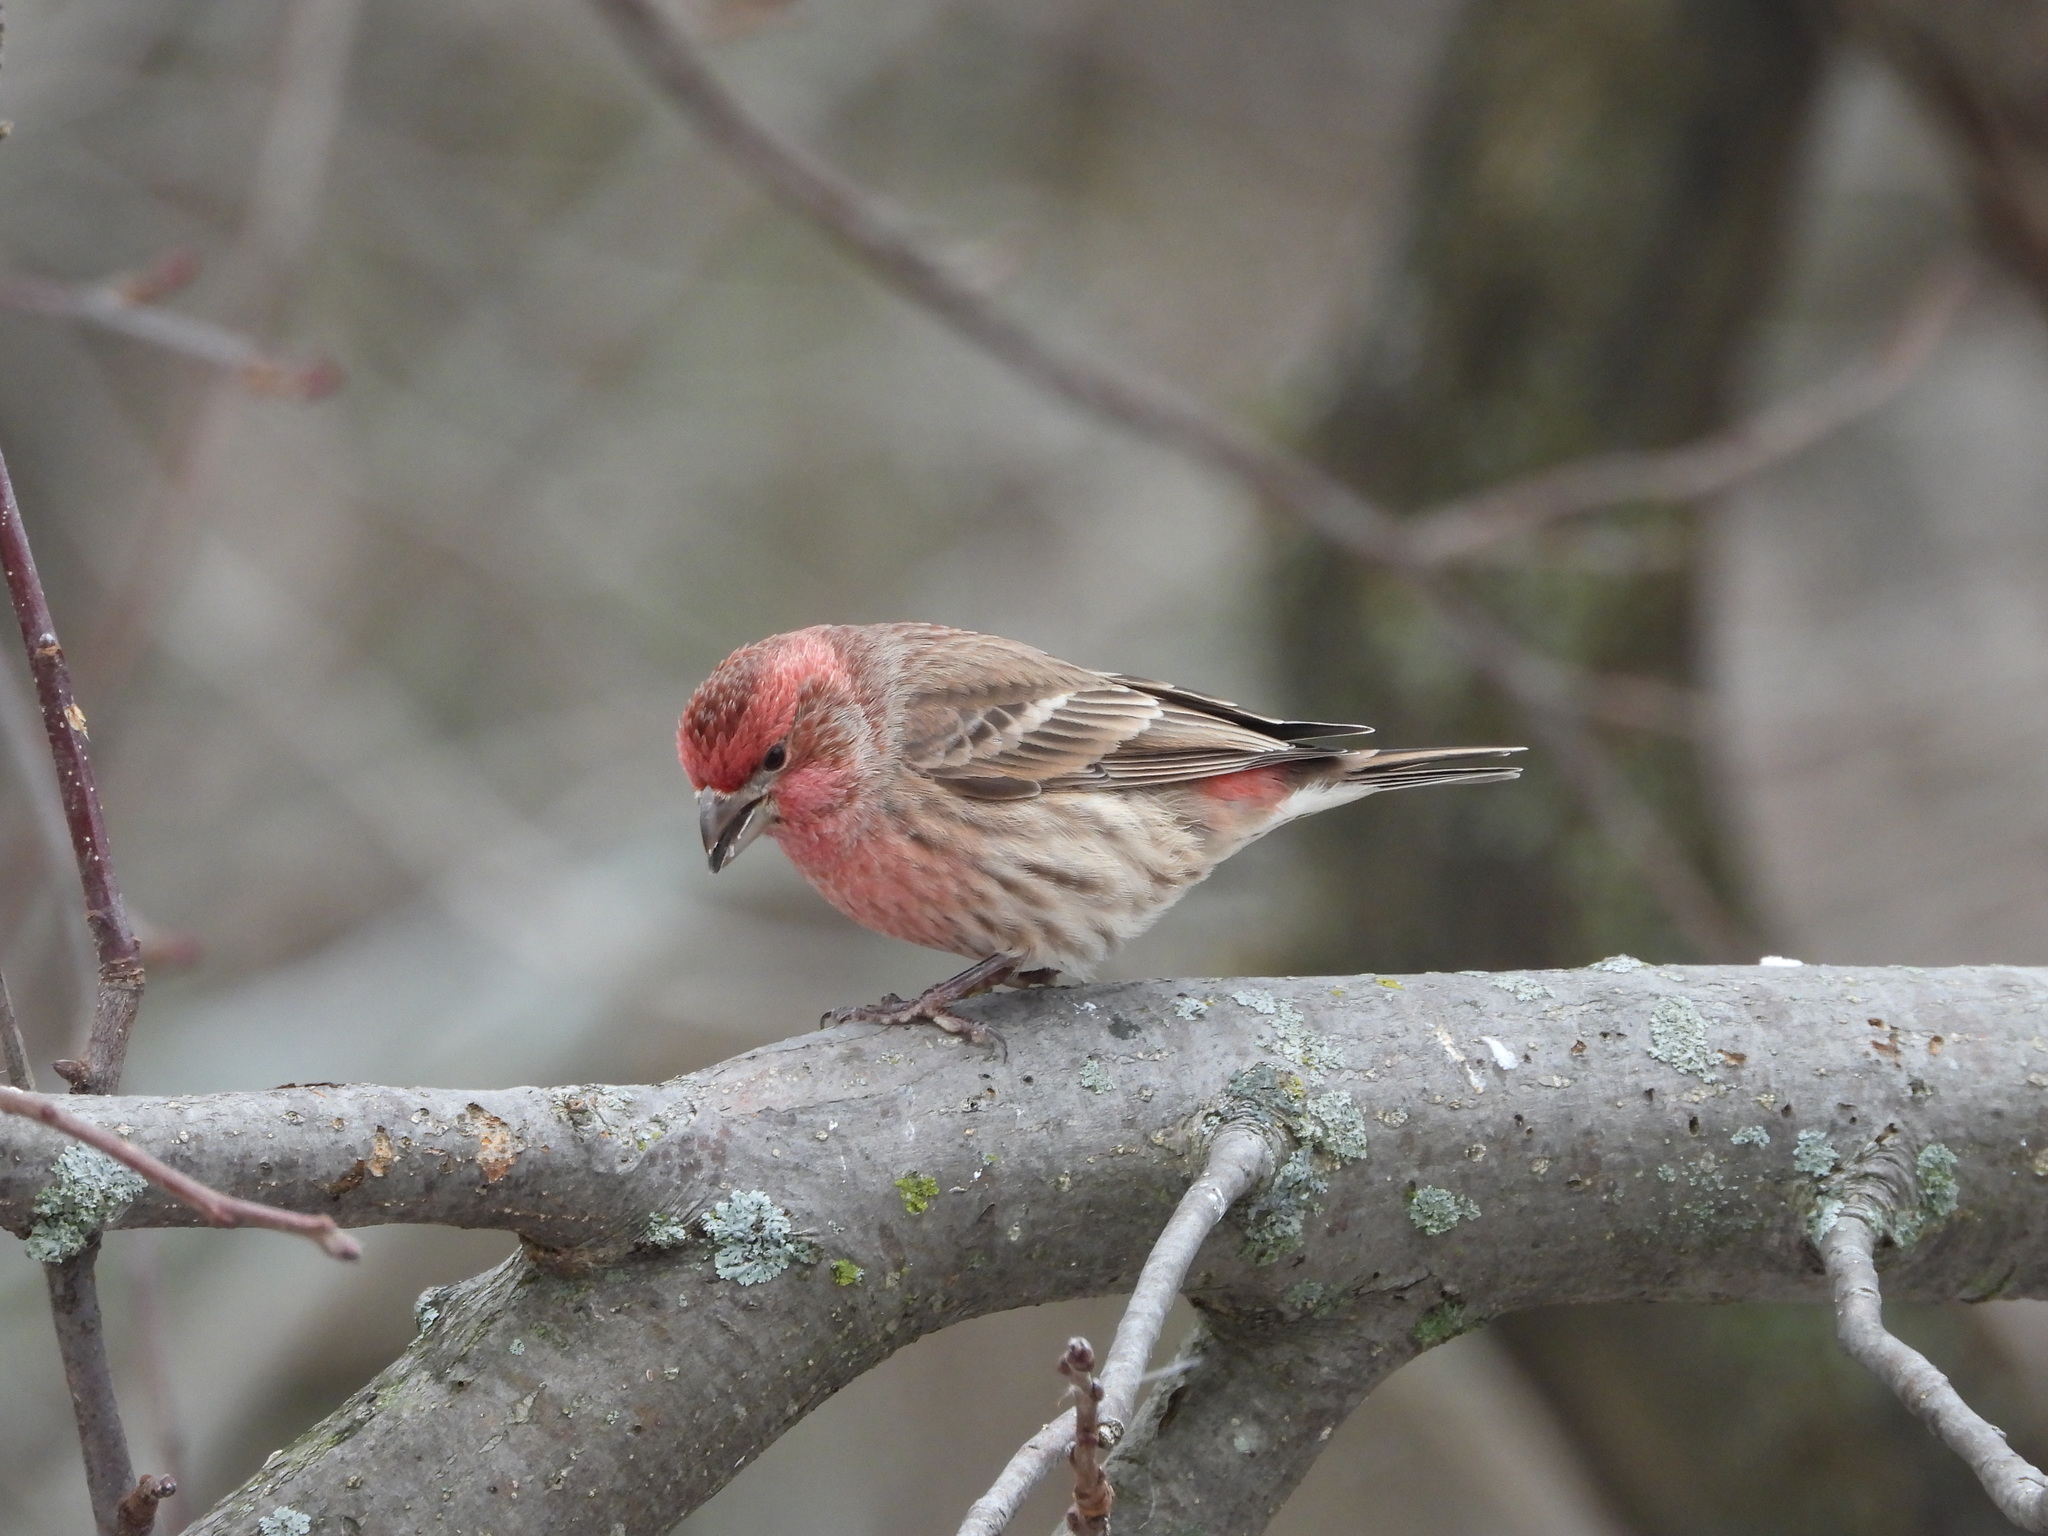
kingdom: Animalia
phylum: Chordata
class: Aves
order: Passeriformes
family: Fringillidae
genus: Haemorhous
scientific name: Haemorhous mexicanus
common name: House finch
